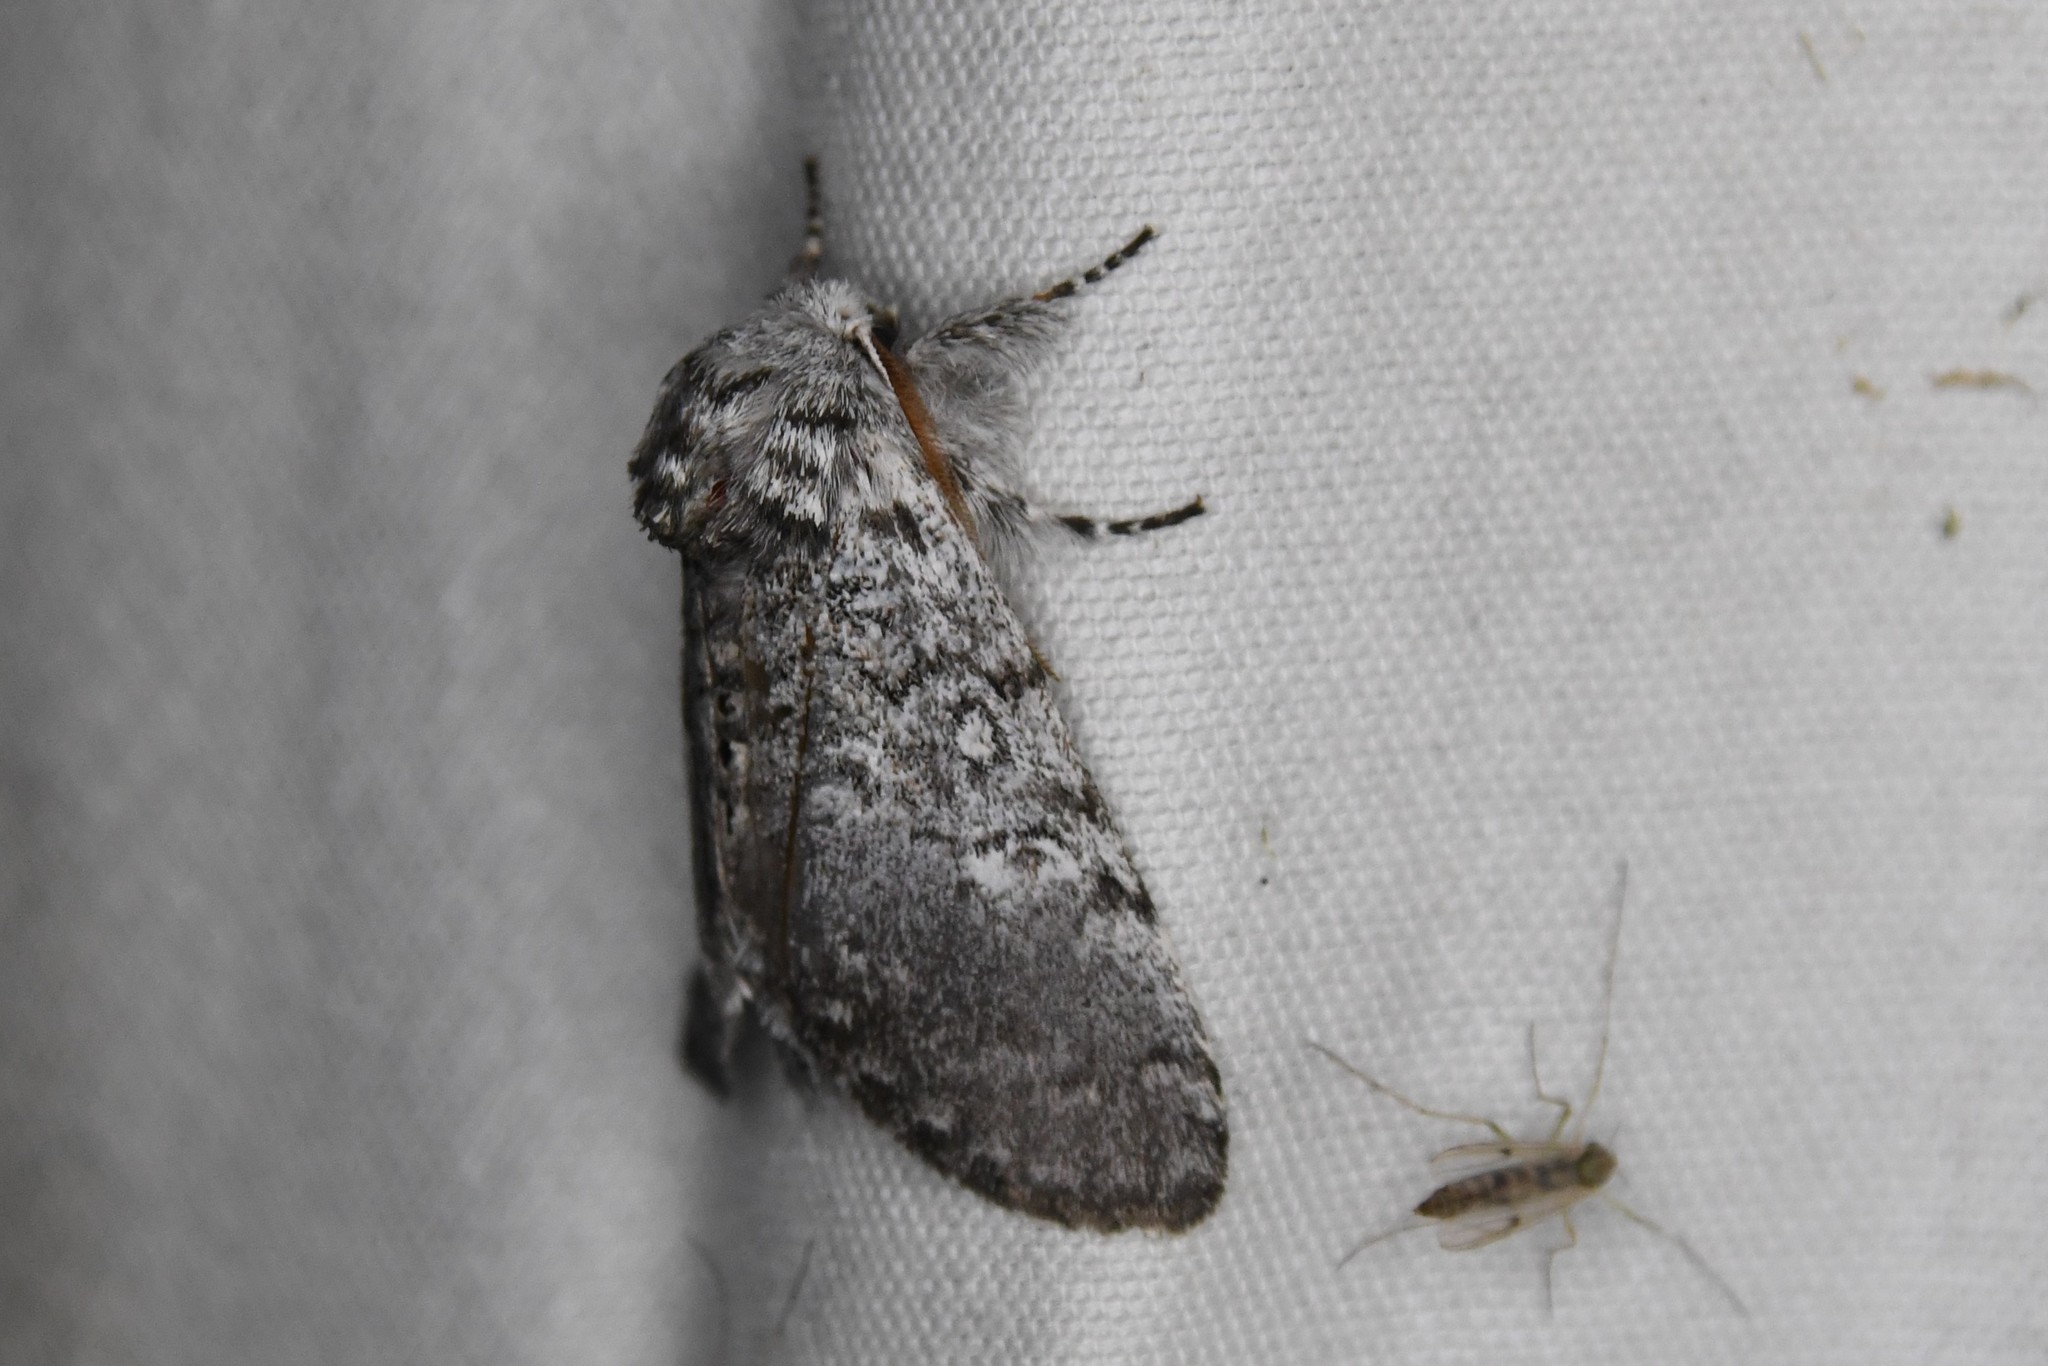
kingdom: Animalia
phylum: Arthropoda
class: Insecta
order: Lepidoptera
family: Noctuidae
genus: Colocasia
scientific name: Colocasia propinquilinea
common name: Close-banded demas
